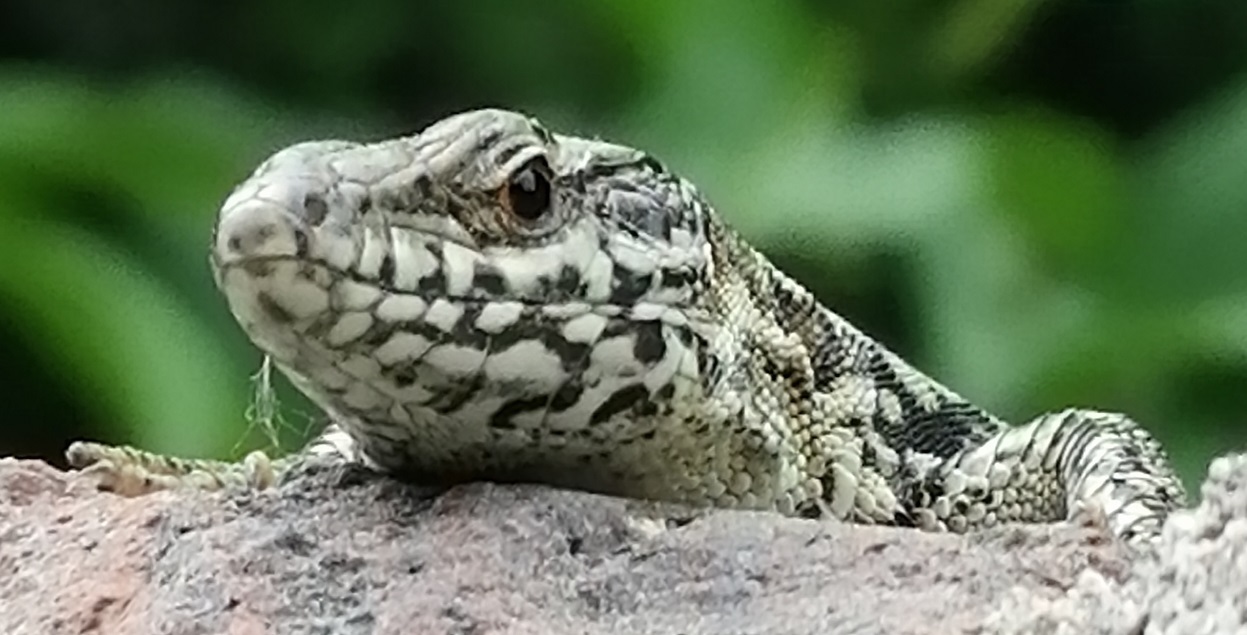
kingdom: Animalia
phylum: Chordata
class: Squamata
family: Lacertidae
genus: Podarcis
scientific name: Podarcis muralis
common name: Common wall lizard
